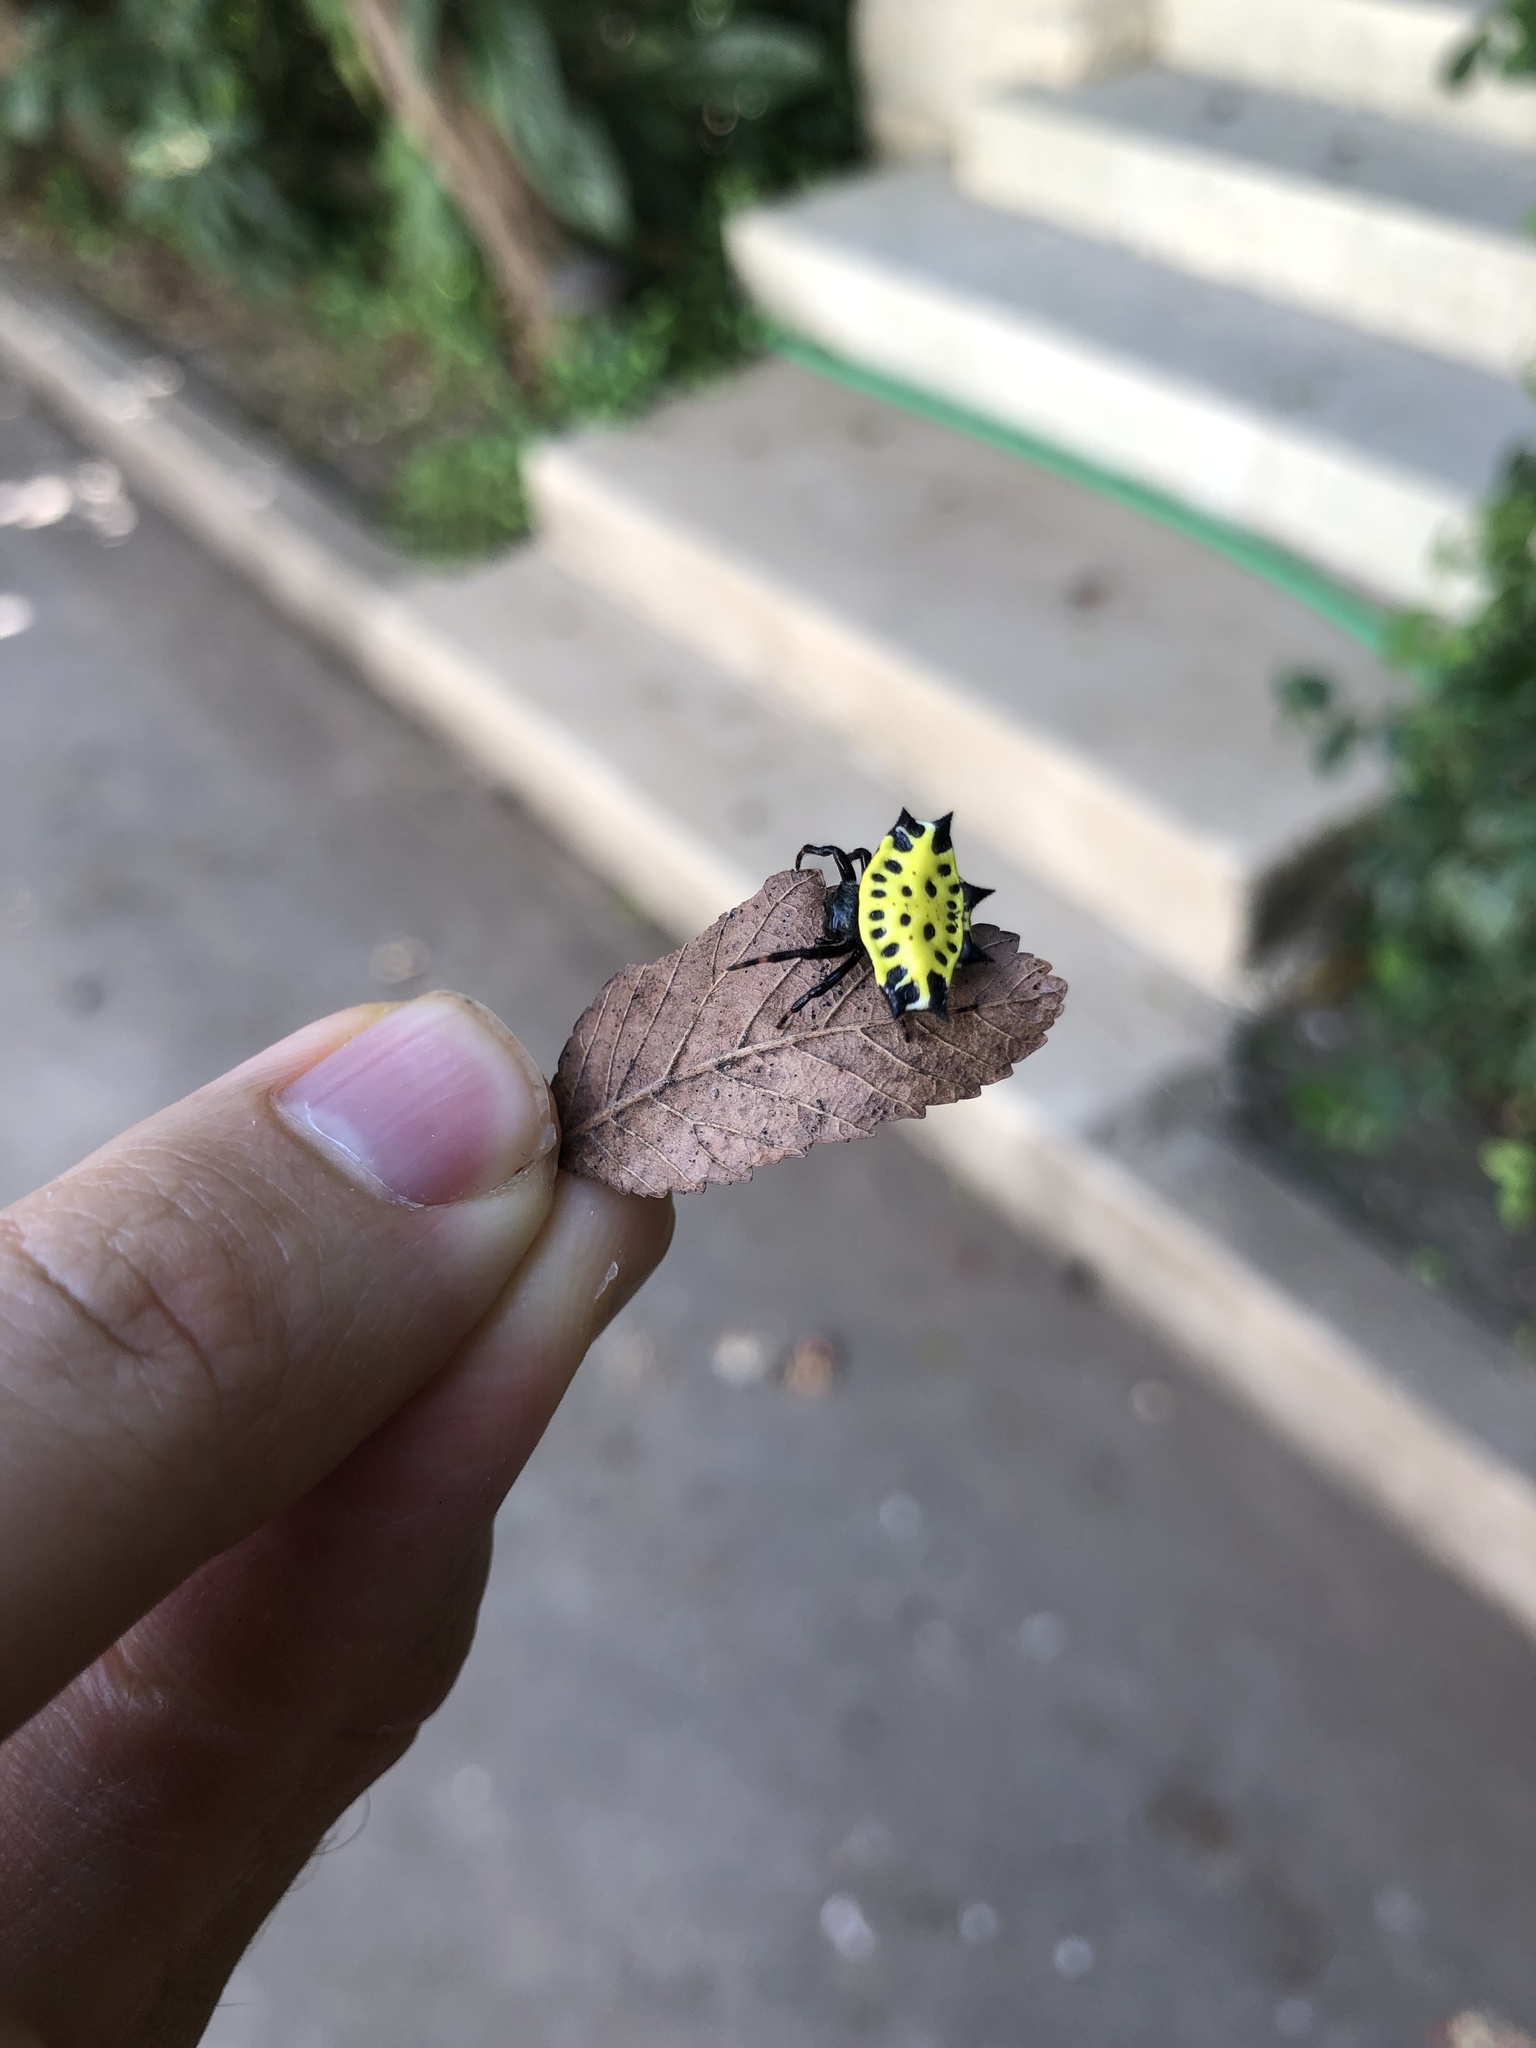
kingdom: Animalia
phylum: Arthropoda
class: Arachnida
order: Araneae
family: Araneidae
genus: Gasteracantha
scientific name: Gasteracantha cancriformis
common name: Orb weavers
